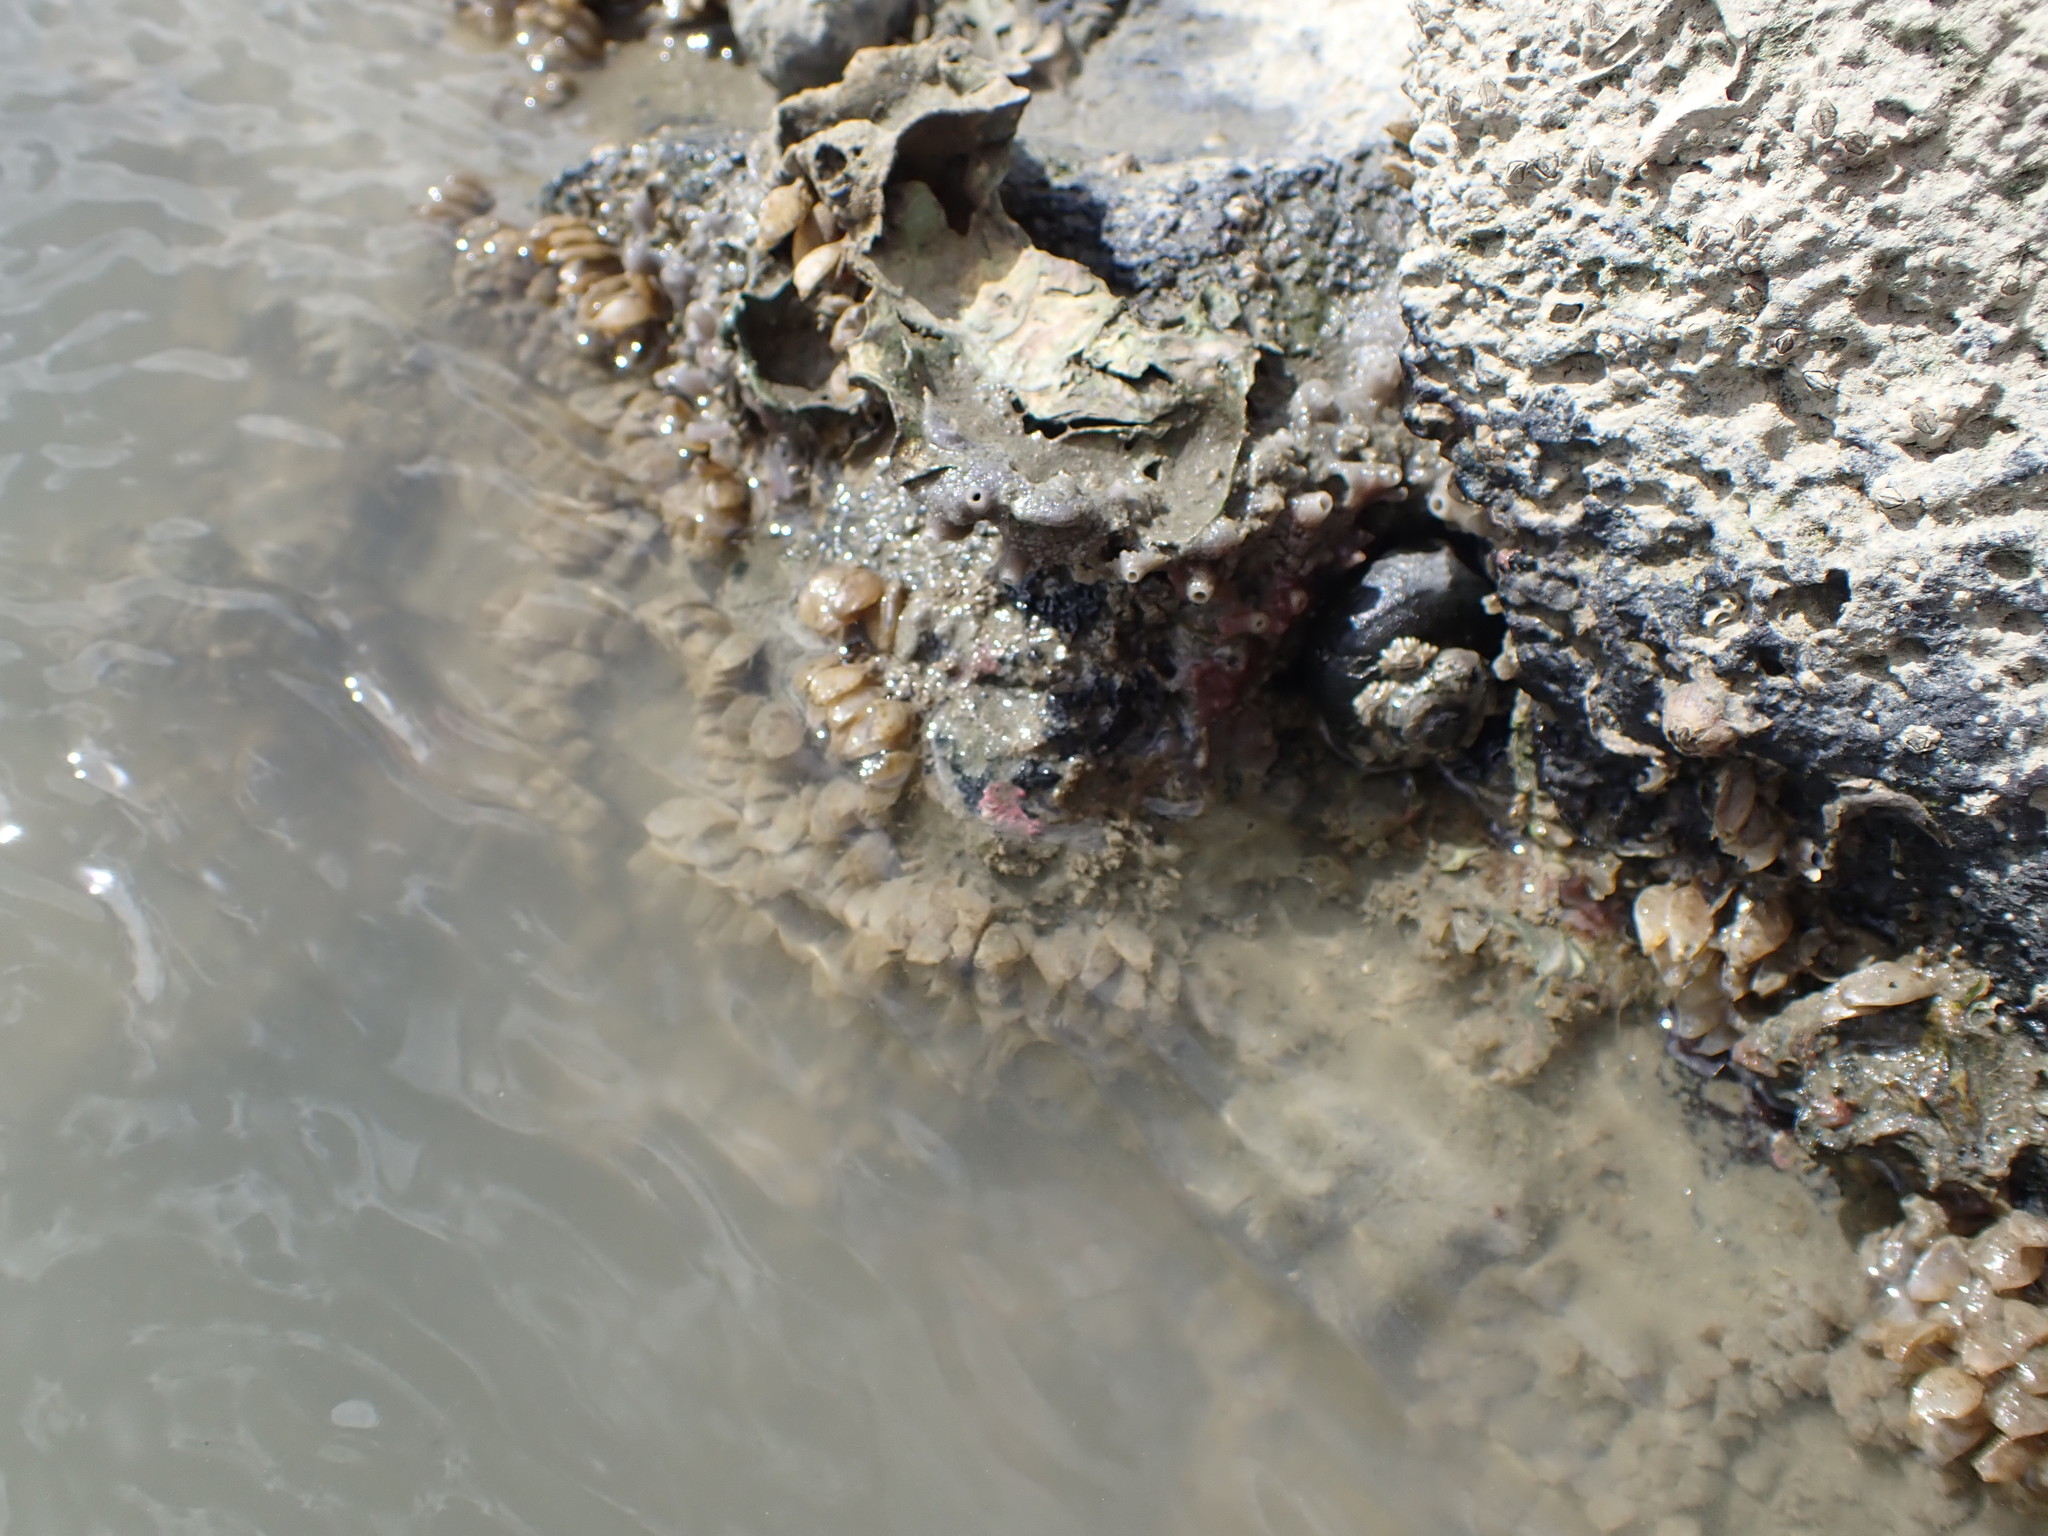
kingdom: Animalia
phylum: Mollusca
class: Gastropoda
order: Neogastropoda
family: Cominellidae
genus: Cominella
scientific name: Cominella adspersa
